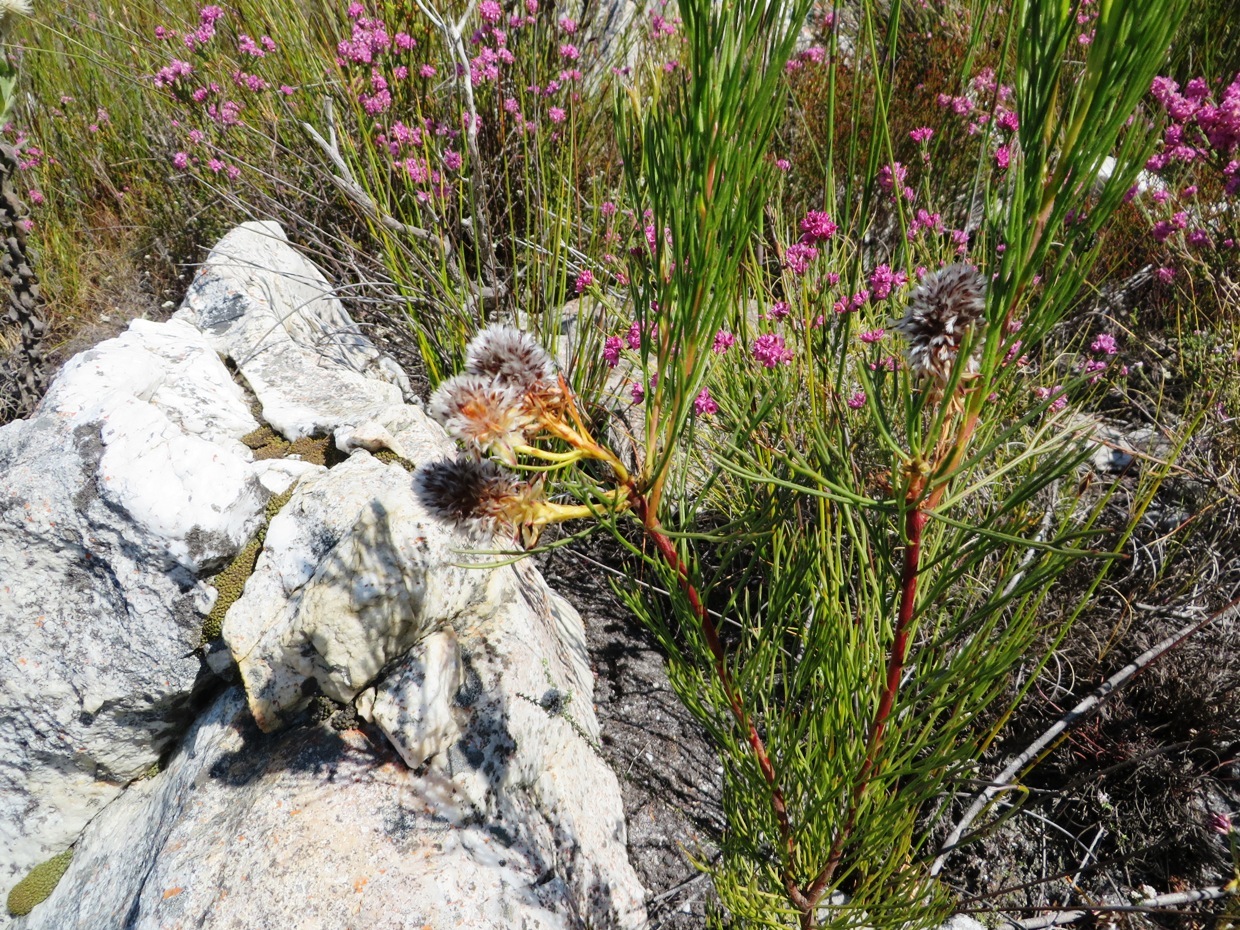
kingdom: Plantae
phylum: Tracheophyta
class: Magnoliopsida
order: Proteales
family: Proteaceae
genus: Serruria
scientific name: Serruria phylicoides
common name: Bearded spiderhead
